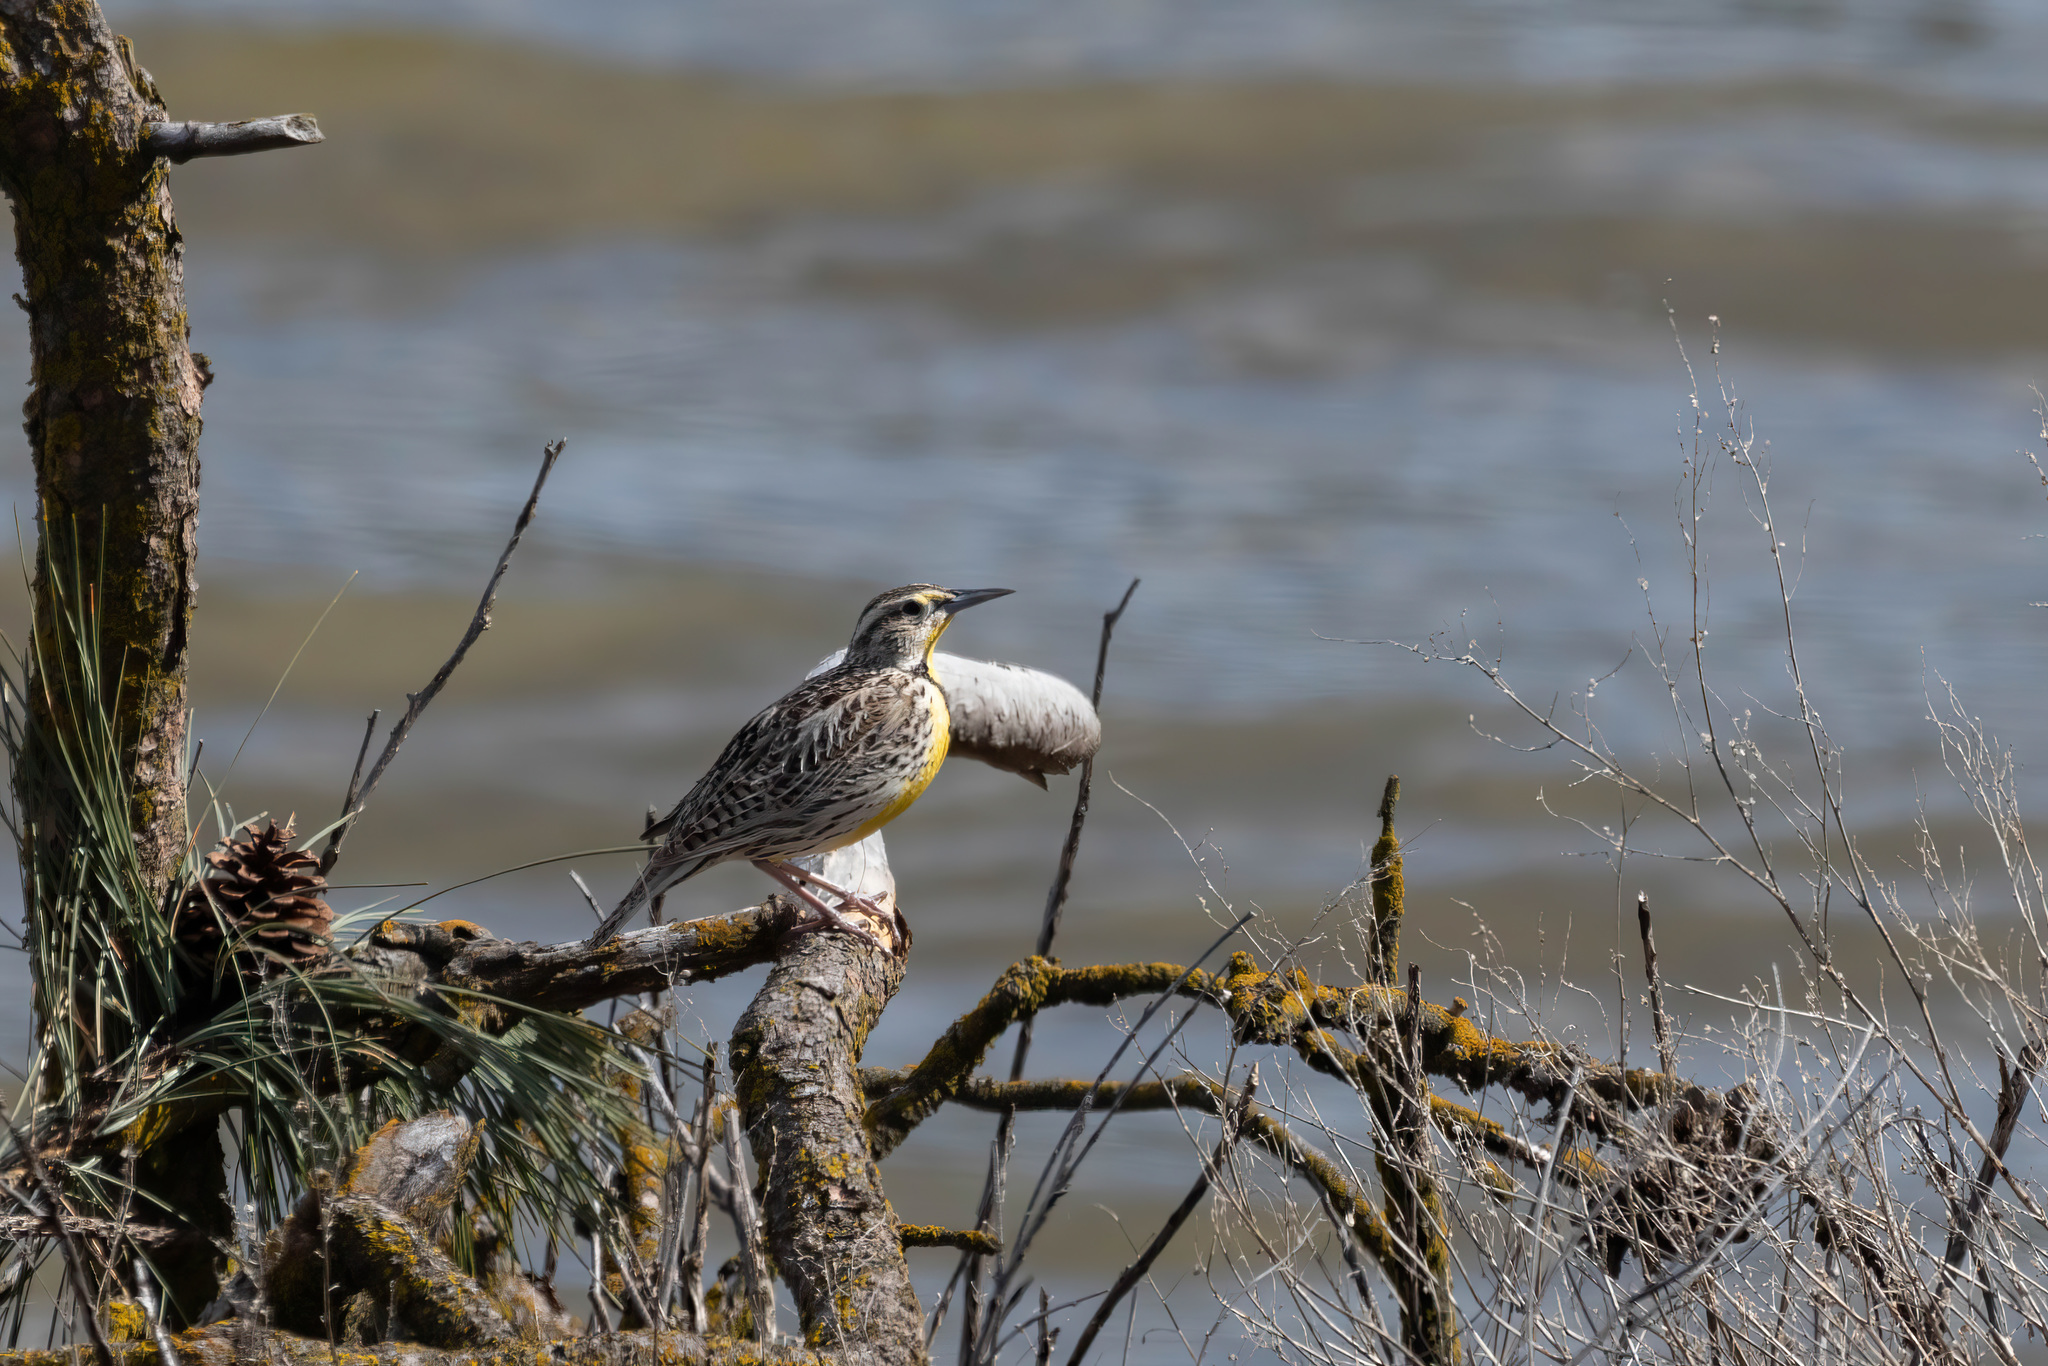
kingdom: Animalia
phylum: Chordata
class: Aves
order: Passeriformes
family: Icteridae
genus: Sturnella
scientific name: Sturnella neglecta
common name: Western meadowlark
